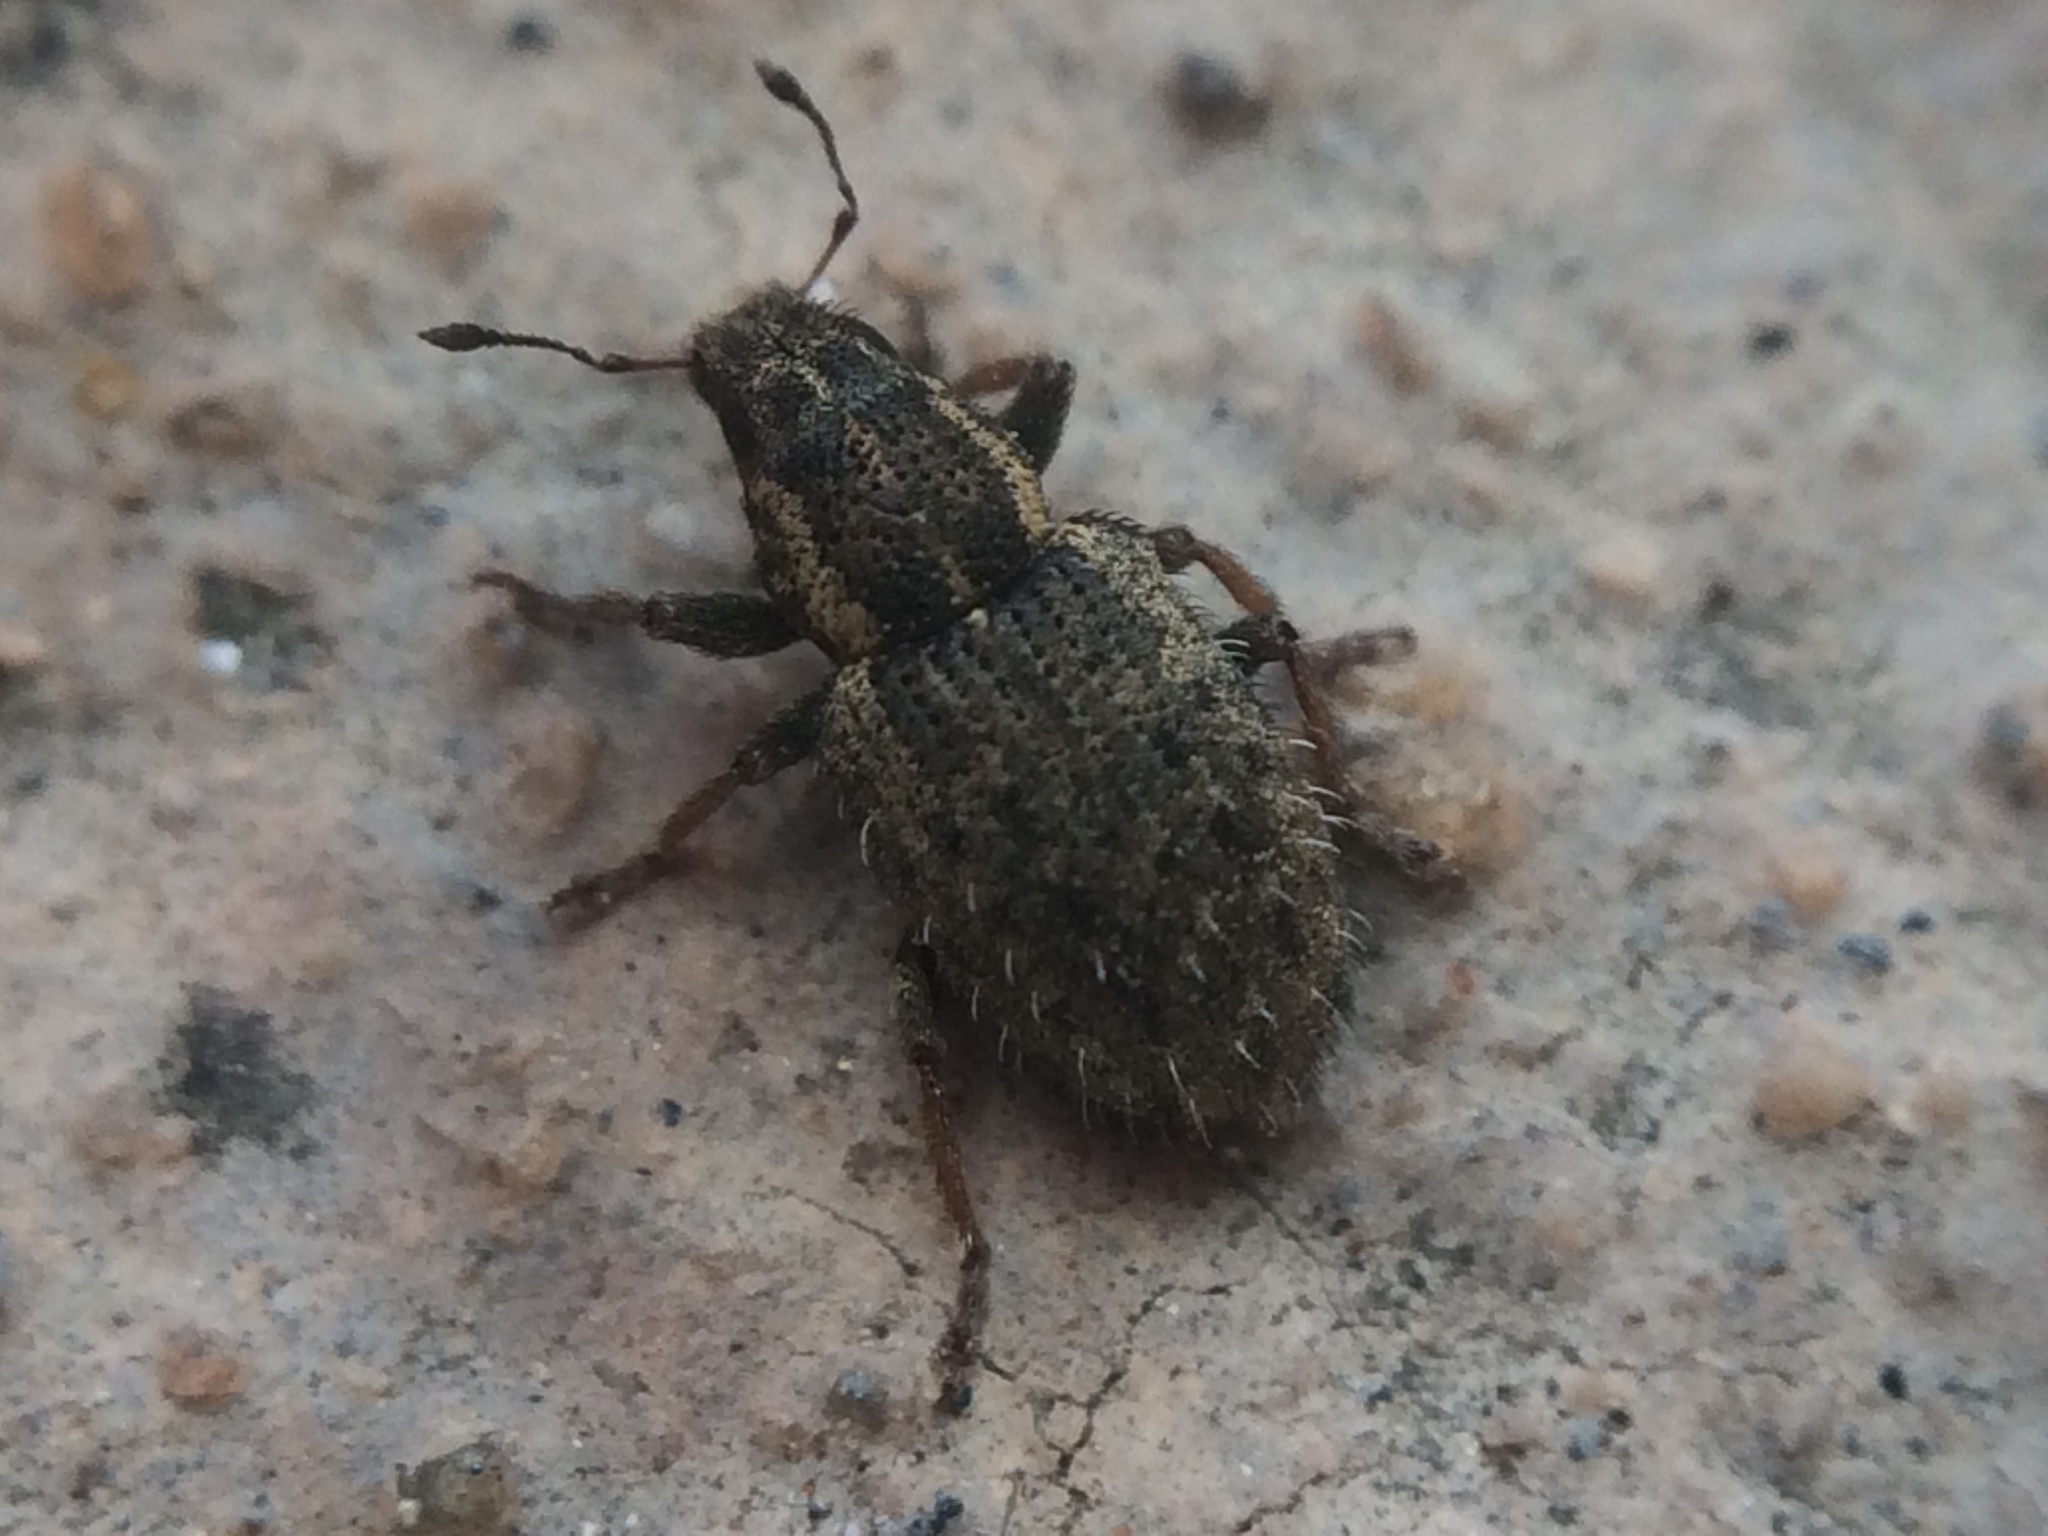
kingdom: Animalia
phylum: Arthropoda
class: Insecta
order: Coleoptera
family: Curculionidae
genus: Sitona
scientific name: Sitona hispidulus
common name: Clover weevil
